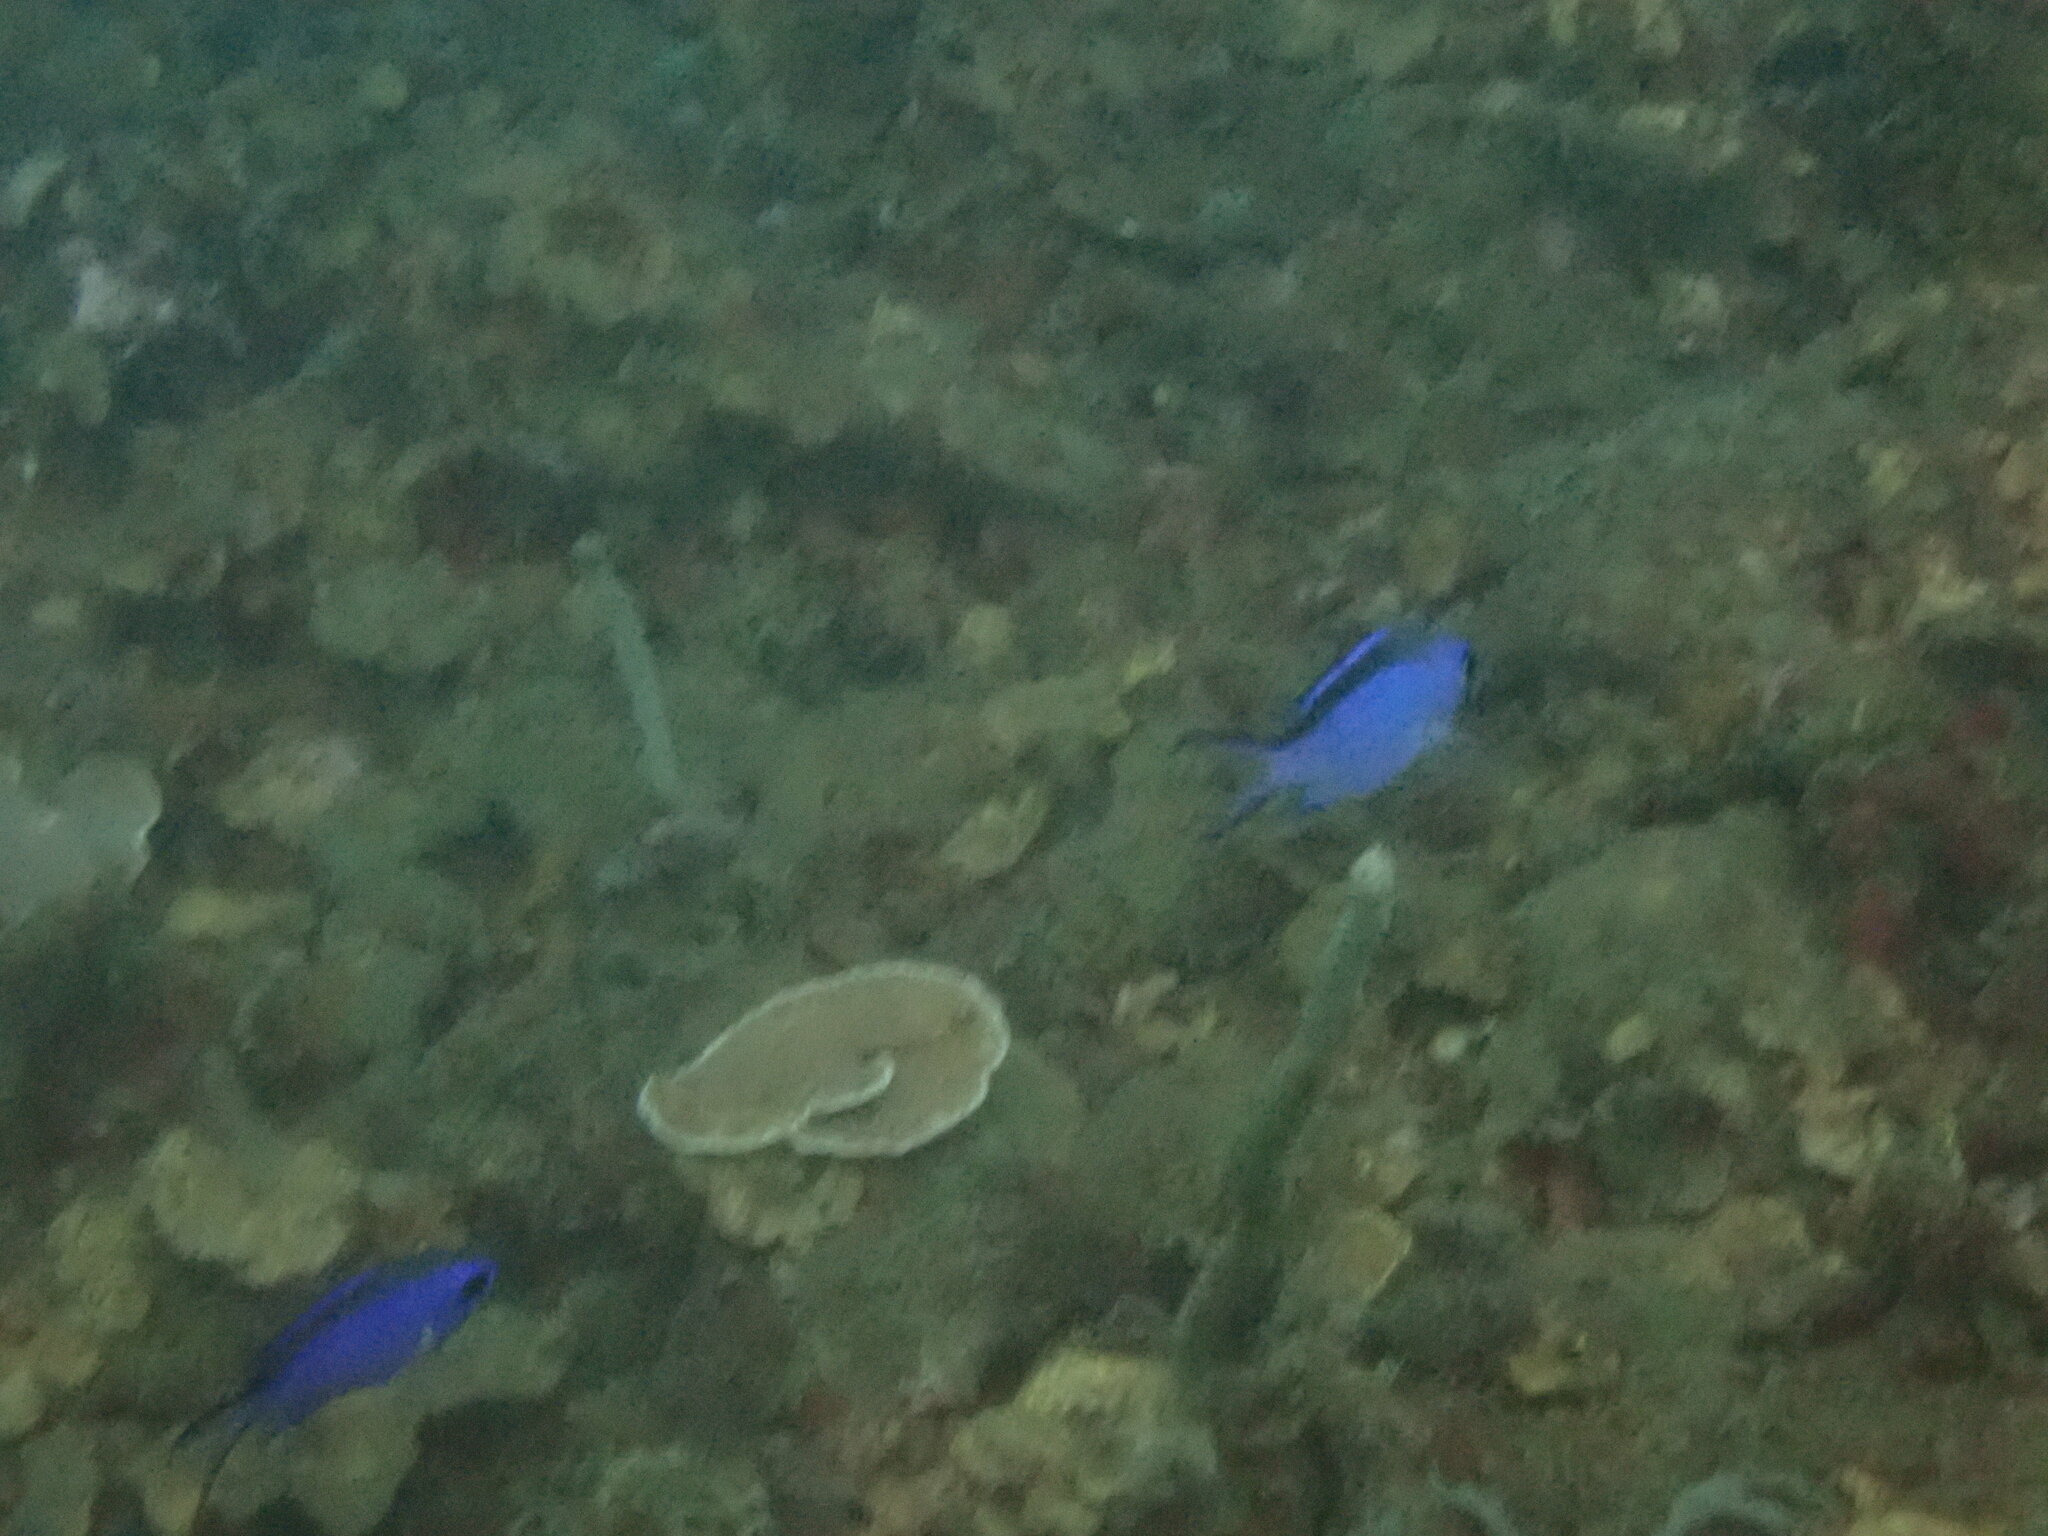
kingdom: Animalia
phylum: Chordata
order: Perciformes
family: Pomacentridae
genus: Chromis
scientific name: Chromis cyanea
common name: Blue chromis
